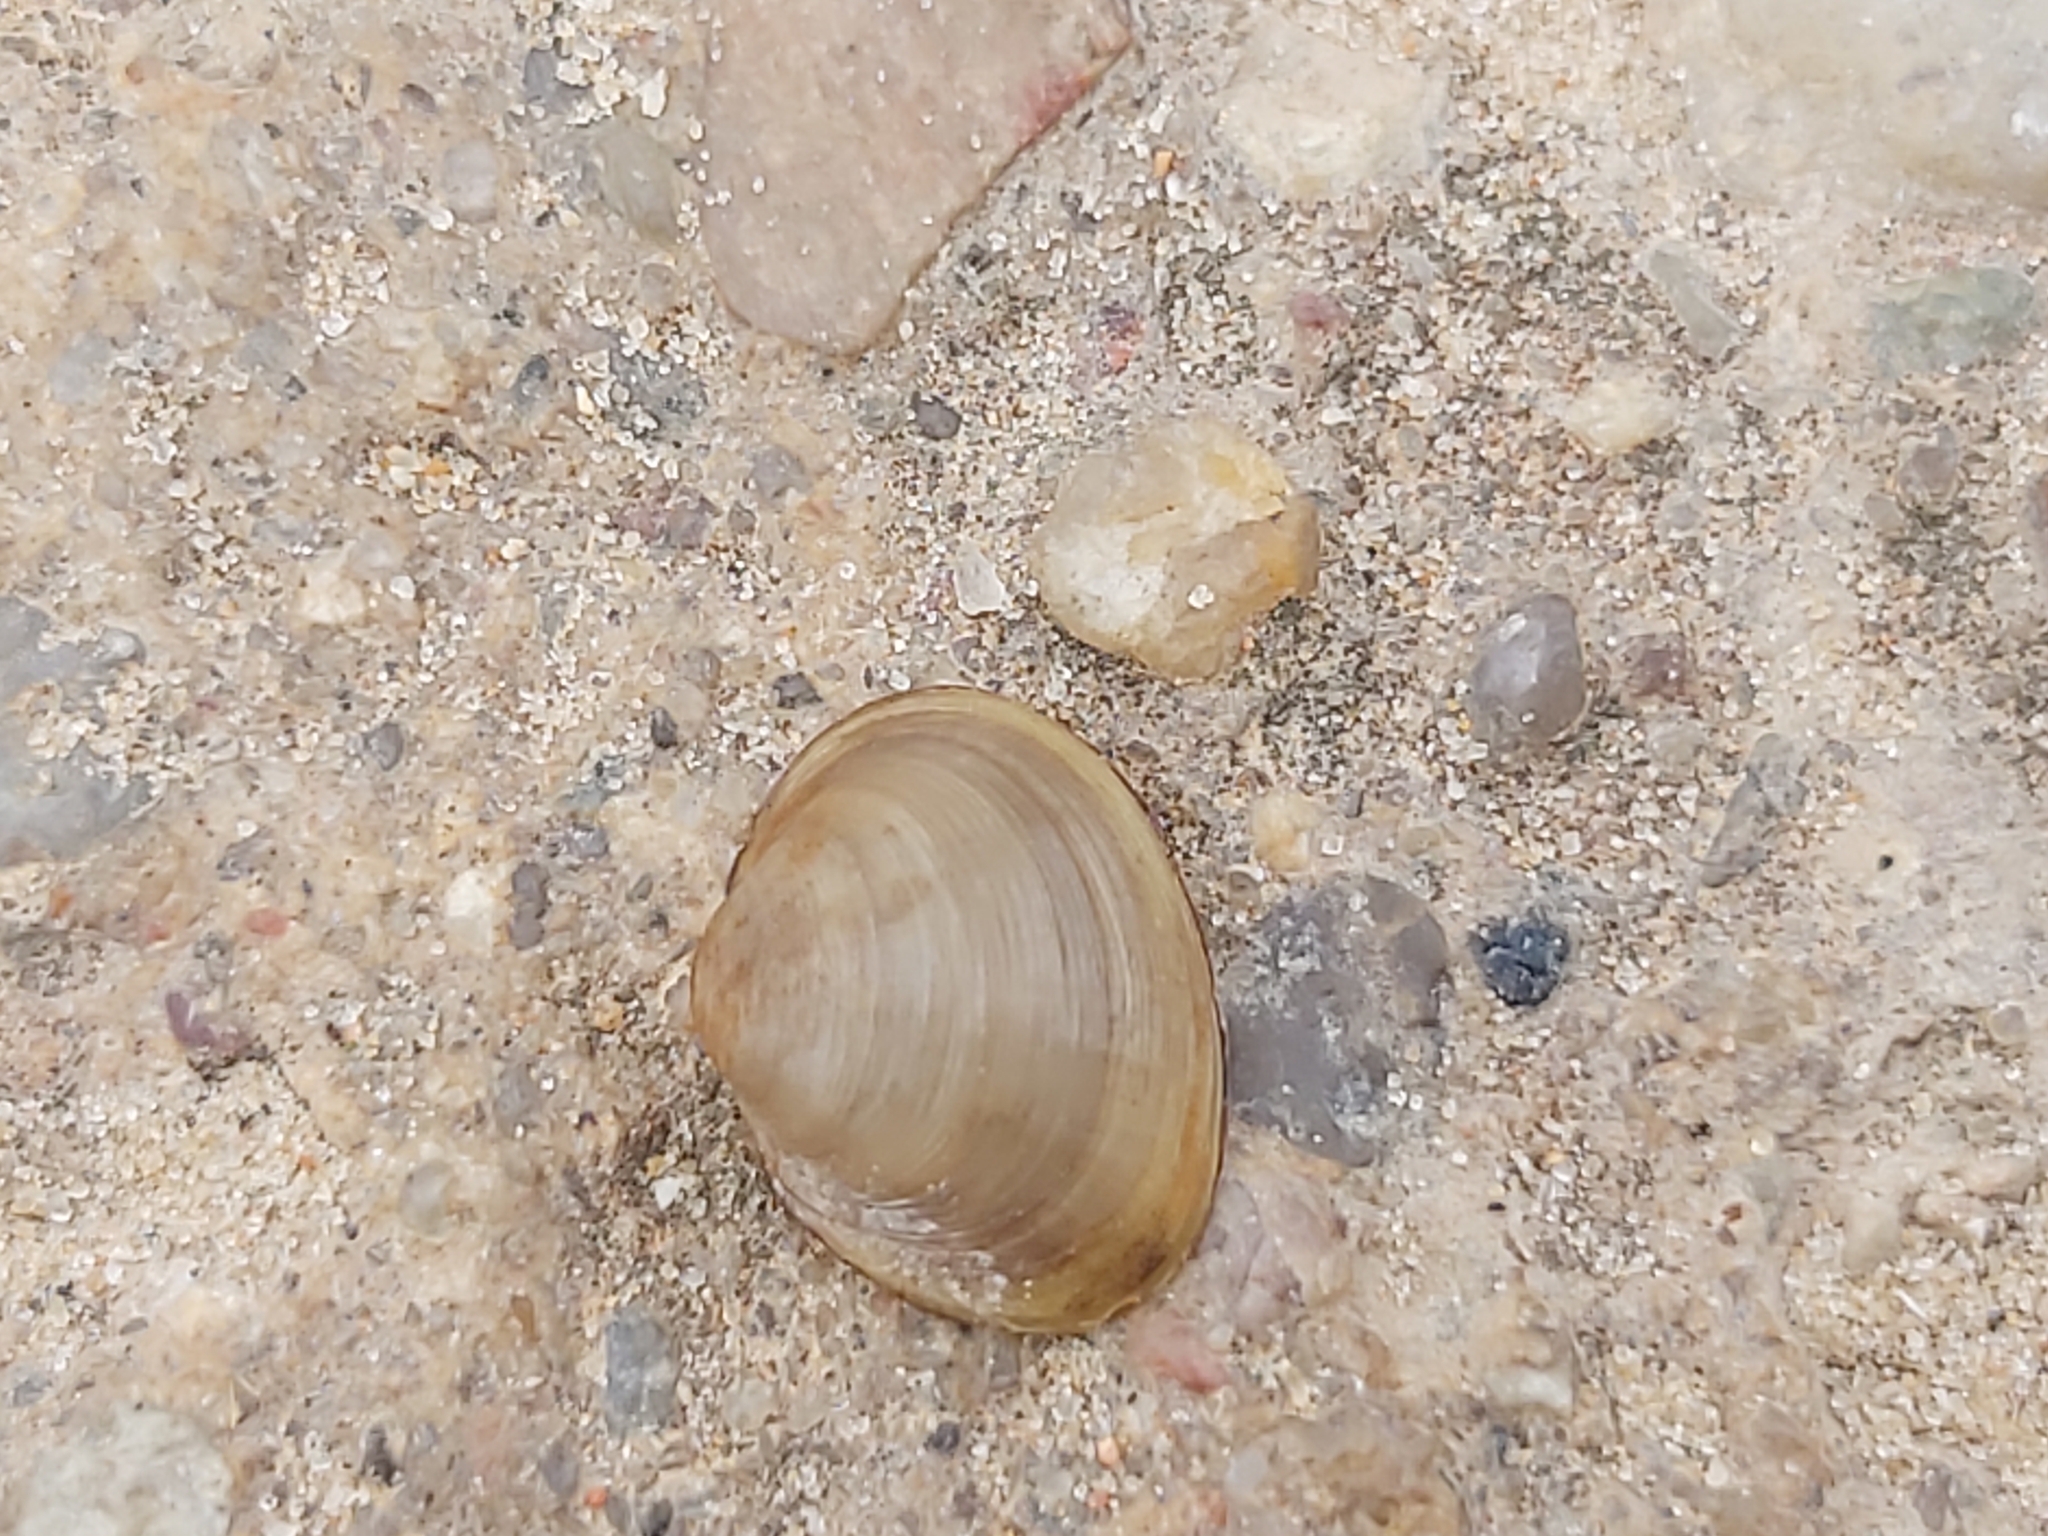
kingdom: Animalia
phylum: Mollusca
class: Bivalvia
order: Sphaeriida
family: Sphaeriidae
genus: Sphaerium
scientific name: Sphaerium corneum
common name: Horny orb mussel
